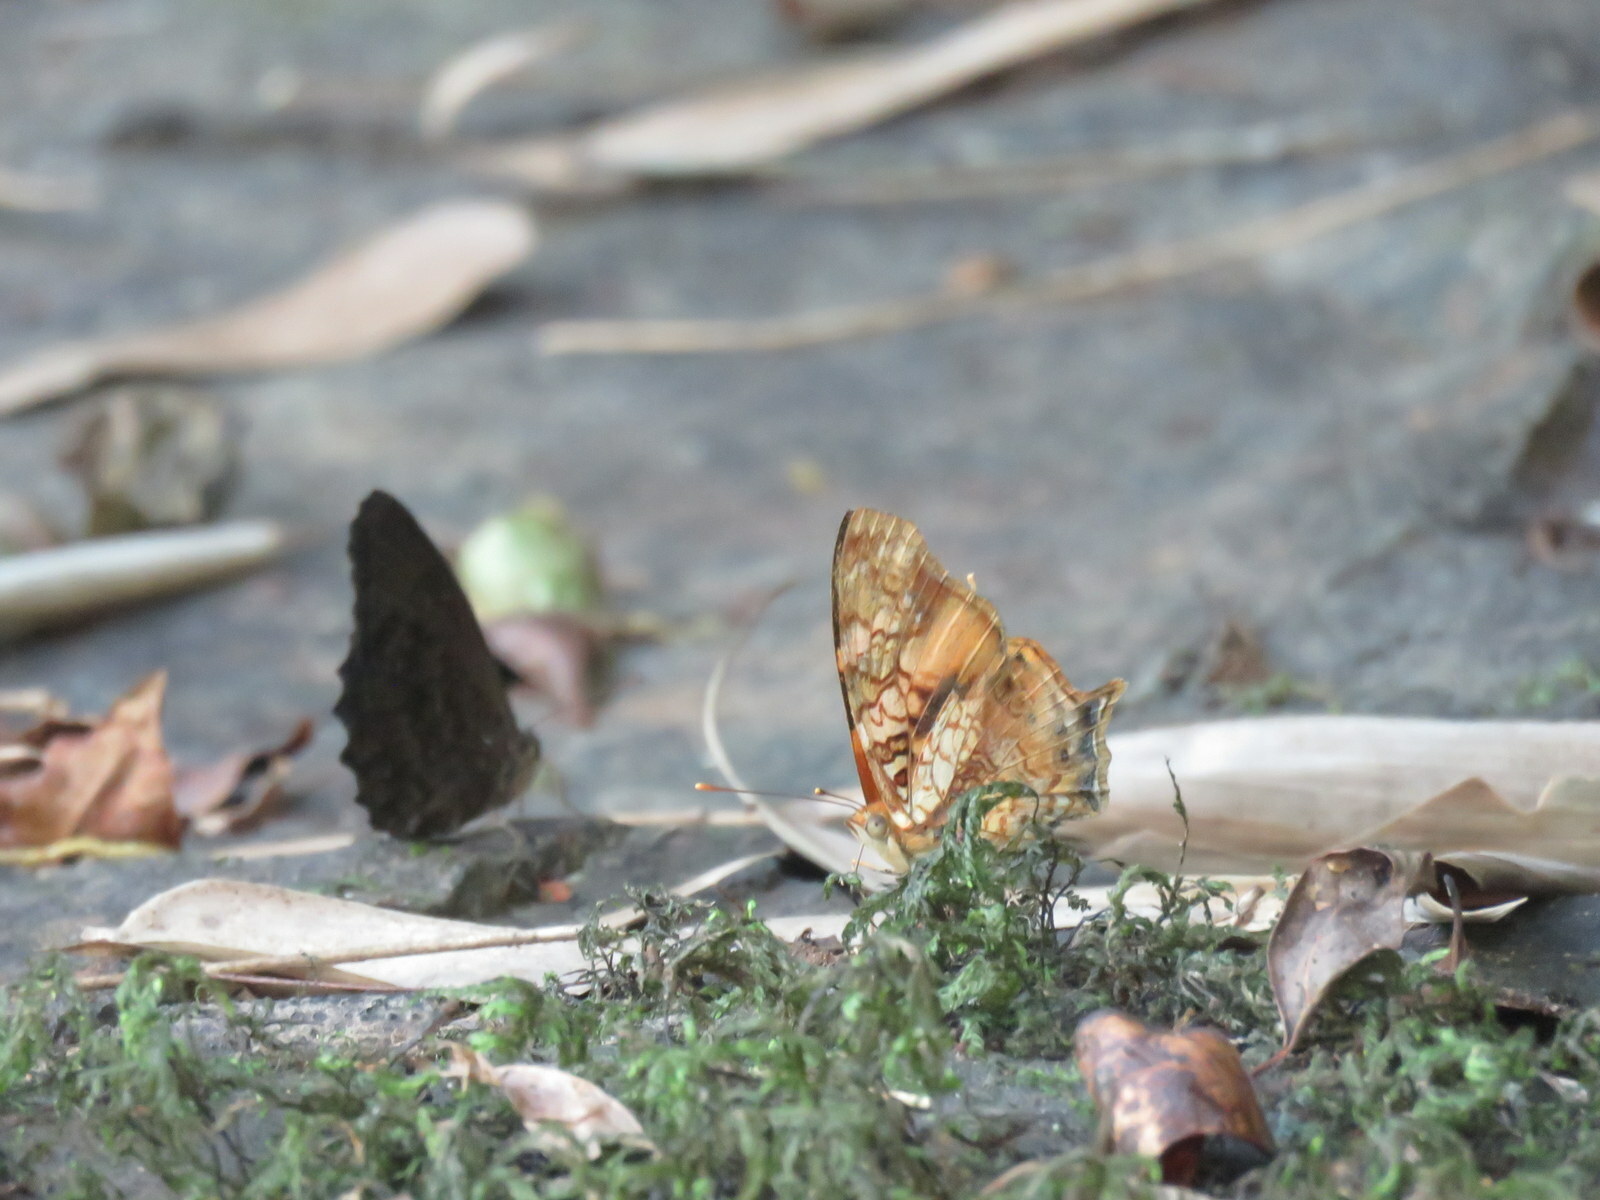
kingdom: Animalia
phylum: Arthropoda
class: Insecta
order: Lepidoptera
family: Nymphalidae
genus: Hypanartia
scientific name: Hypanartia lethe
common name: Orange mapwing
